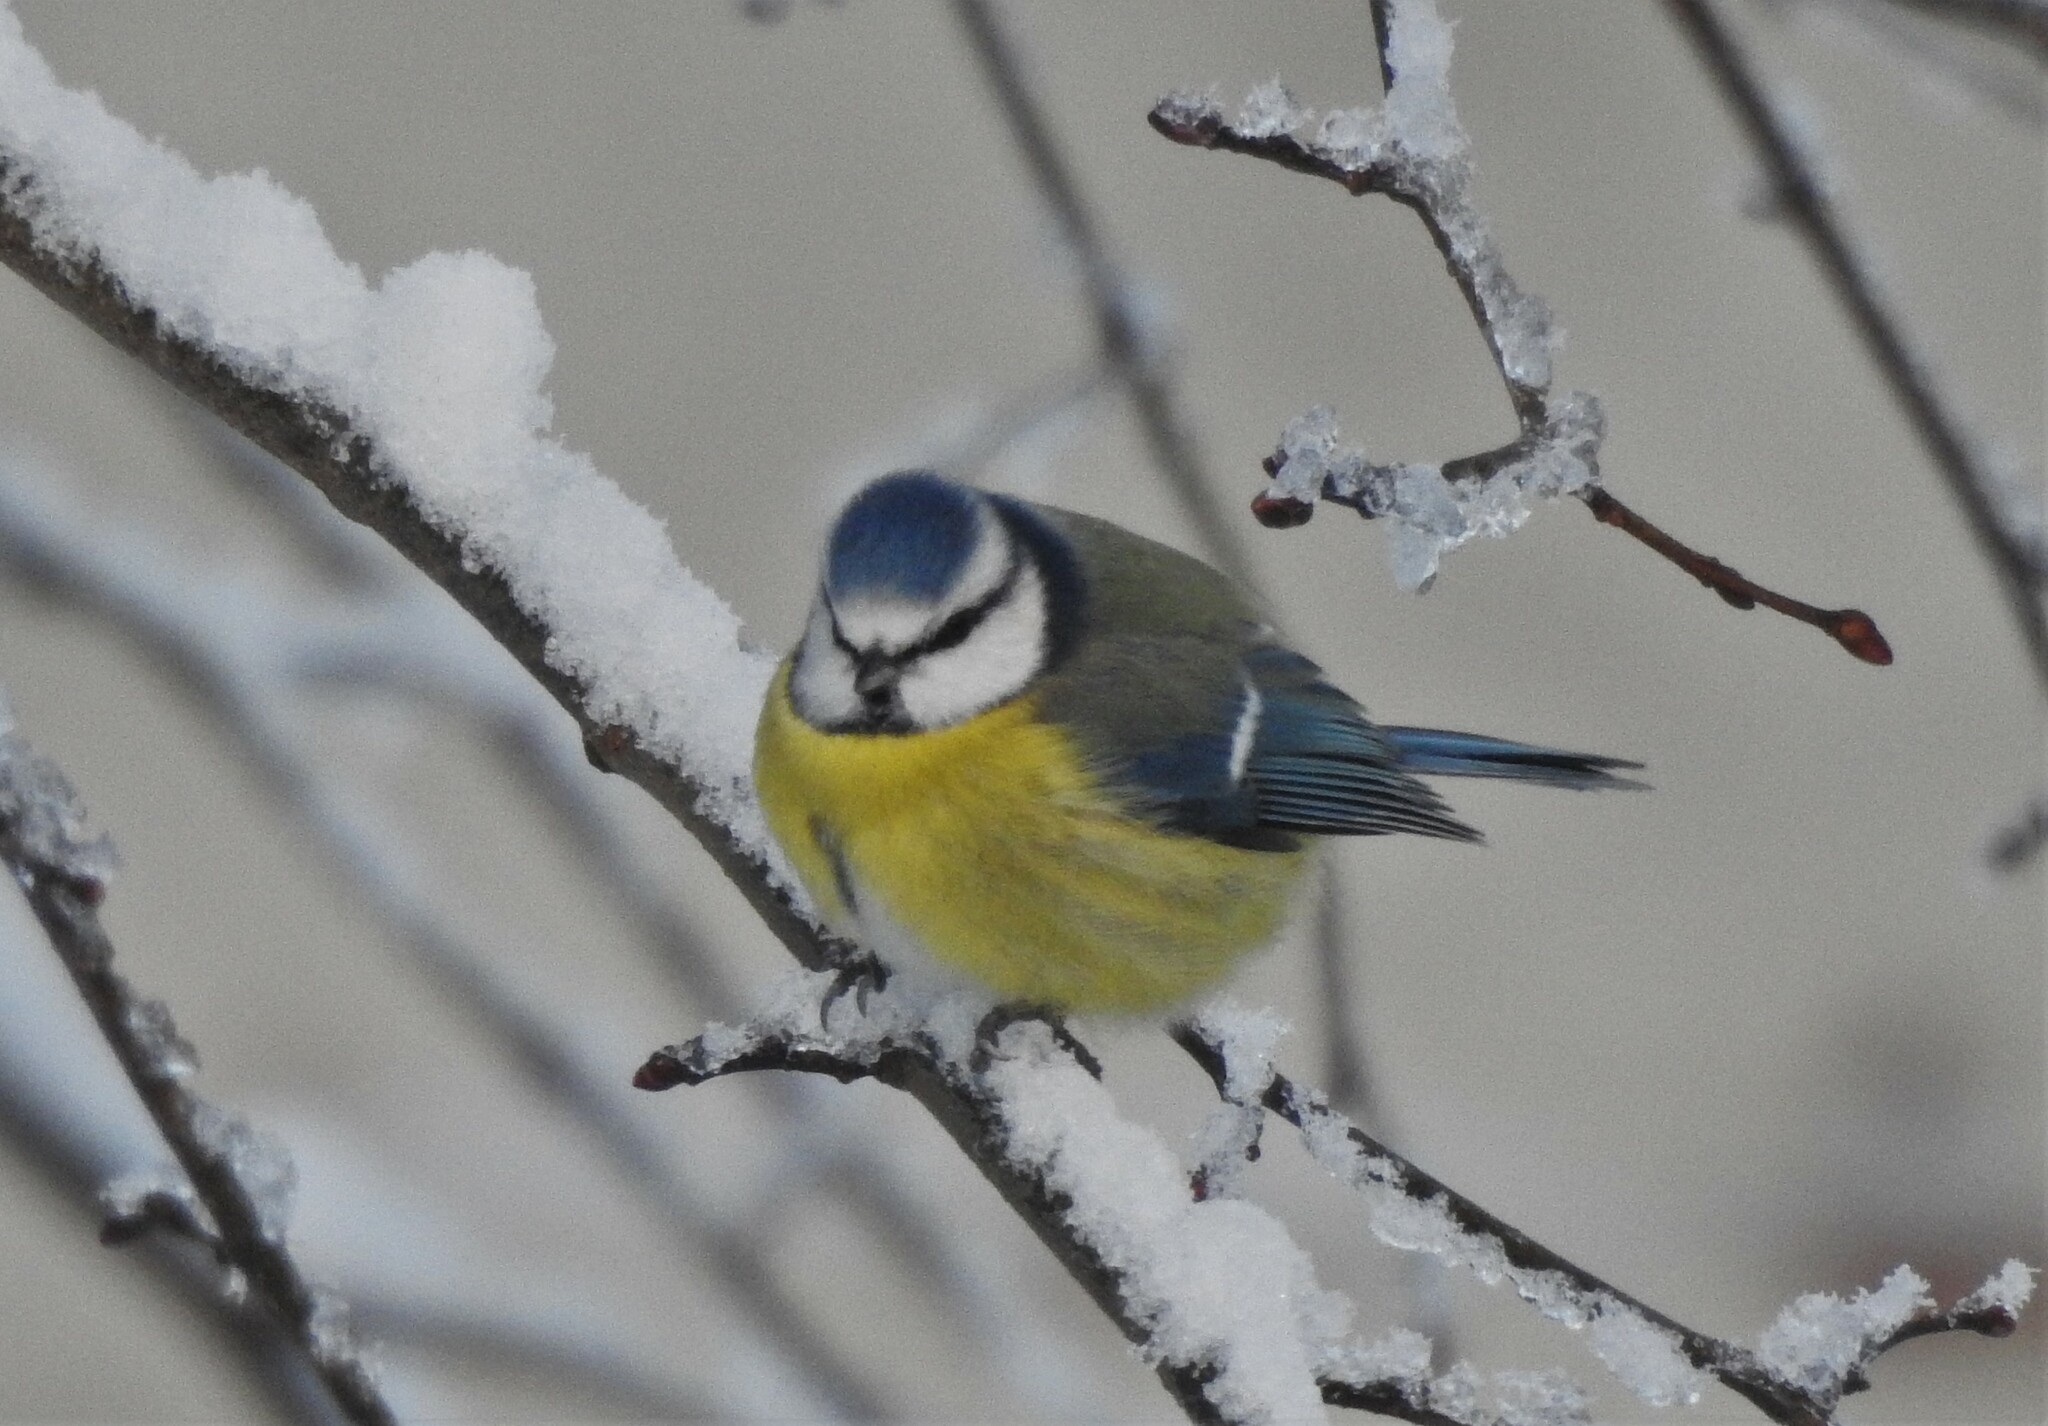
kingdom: Animalia
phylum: Chordata
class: Aves
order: Passeriformes
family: Paridae
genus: Cyanistes
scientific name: Cyanistes caeruleus
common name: Eurasian blue tit
